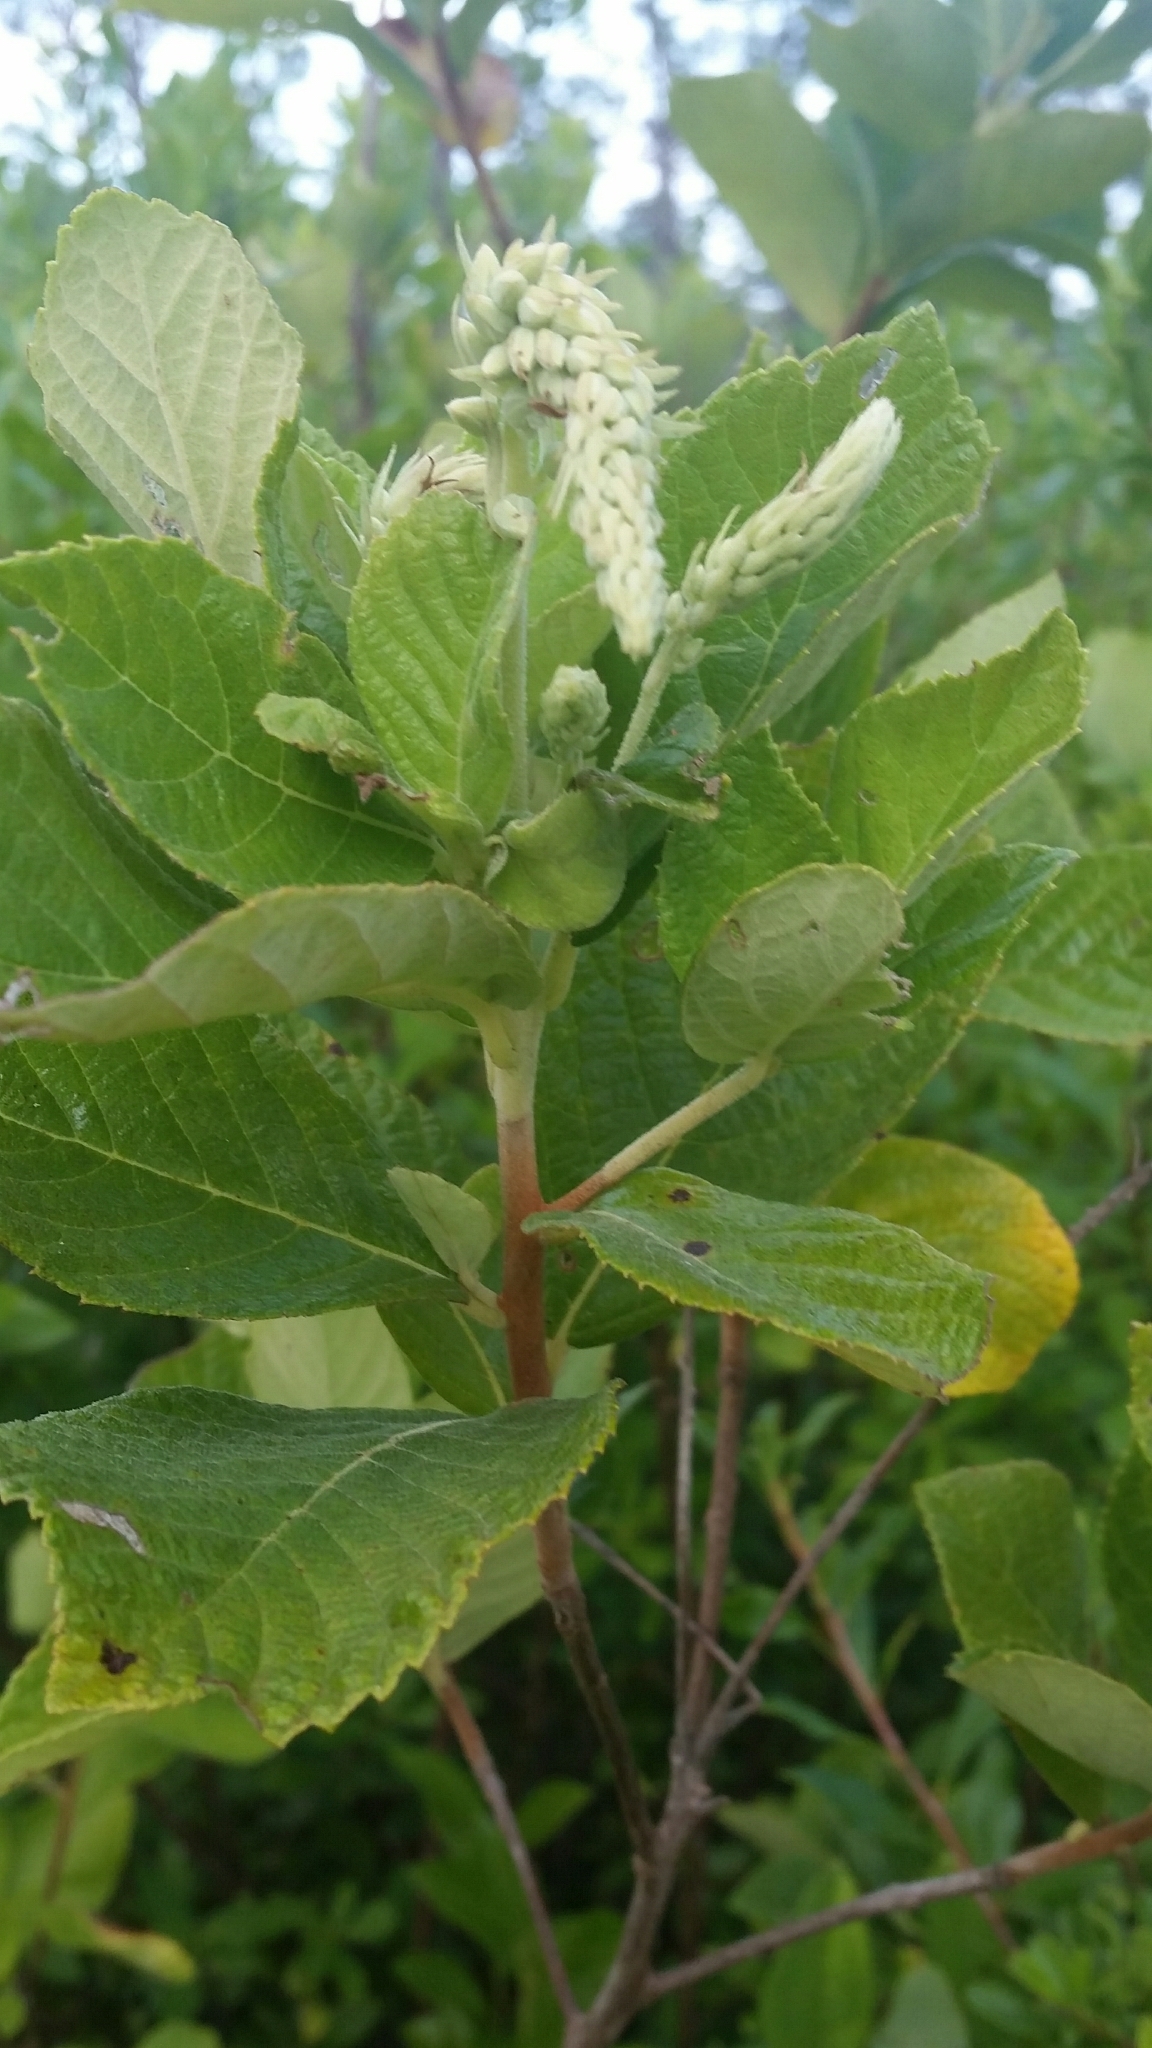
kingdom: Plantae
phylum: Tracheophyta
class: Magnoliopsida
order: Ericales
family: Clethraceae
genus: Clethra
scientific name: Clethra tomentosa
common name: Downy sweet pepperbush
